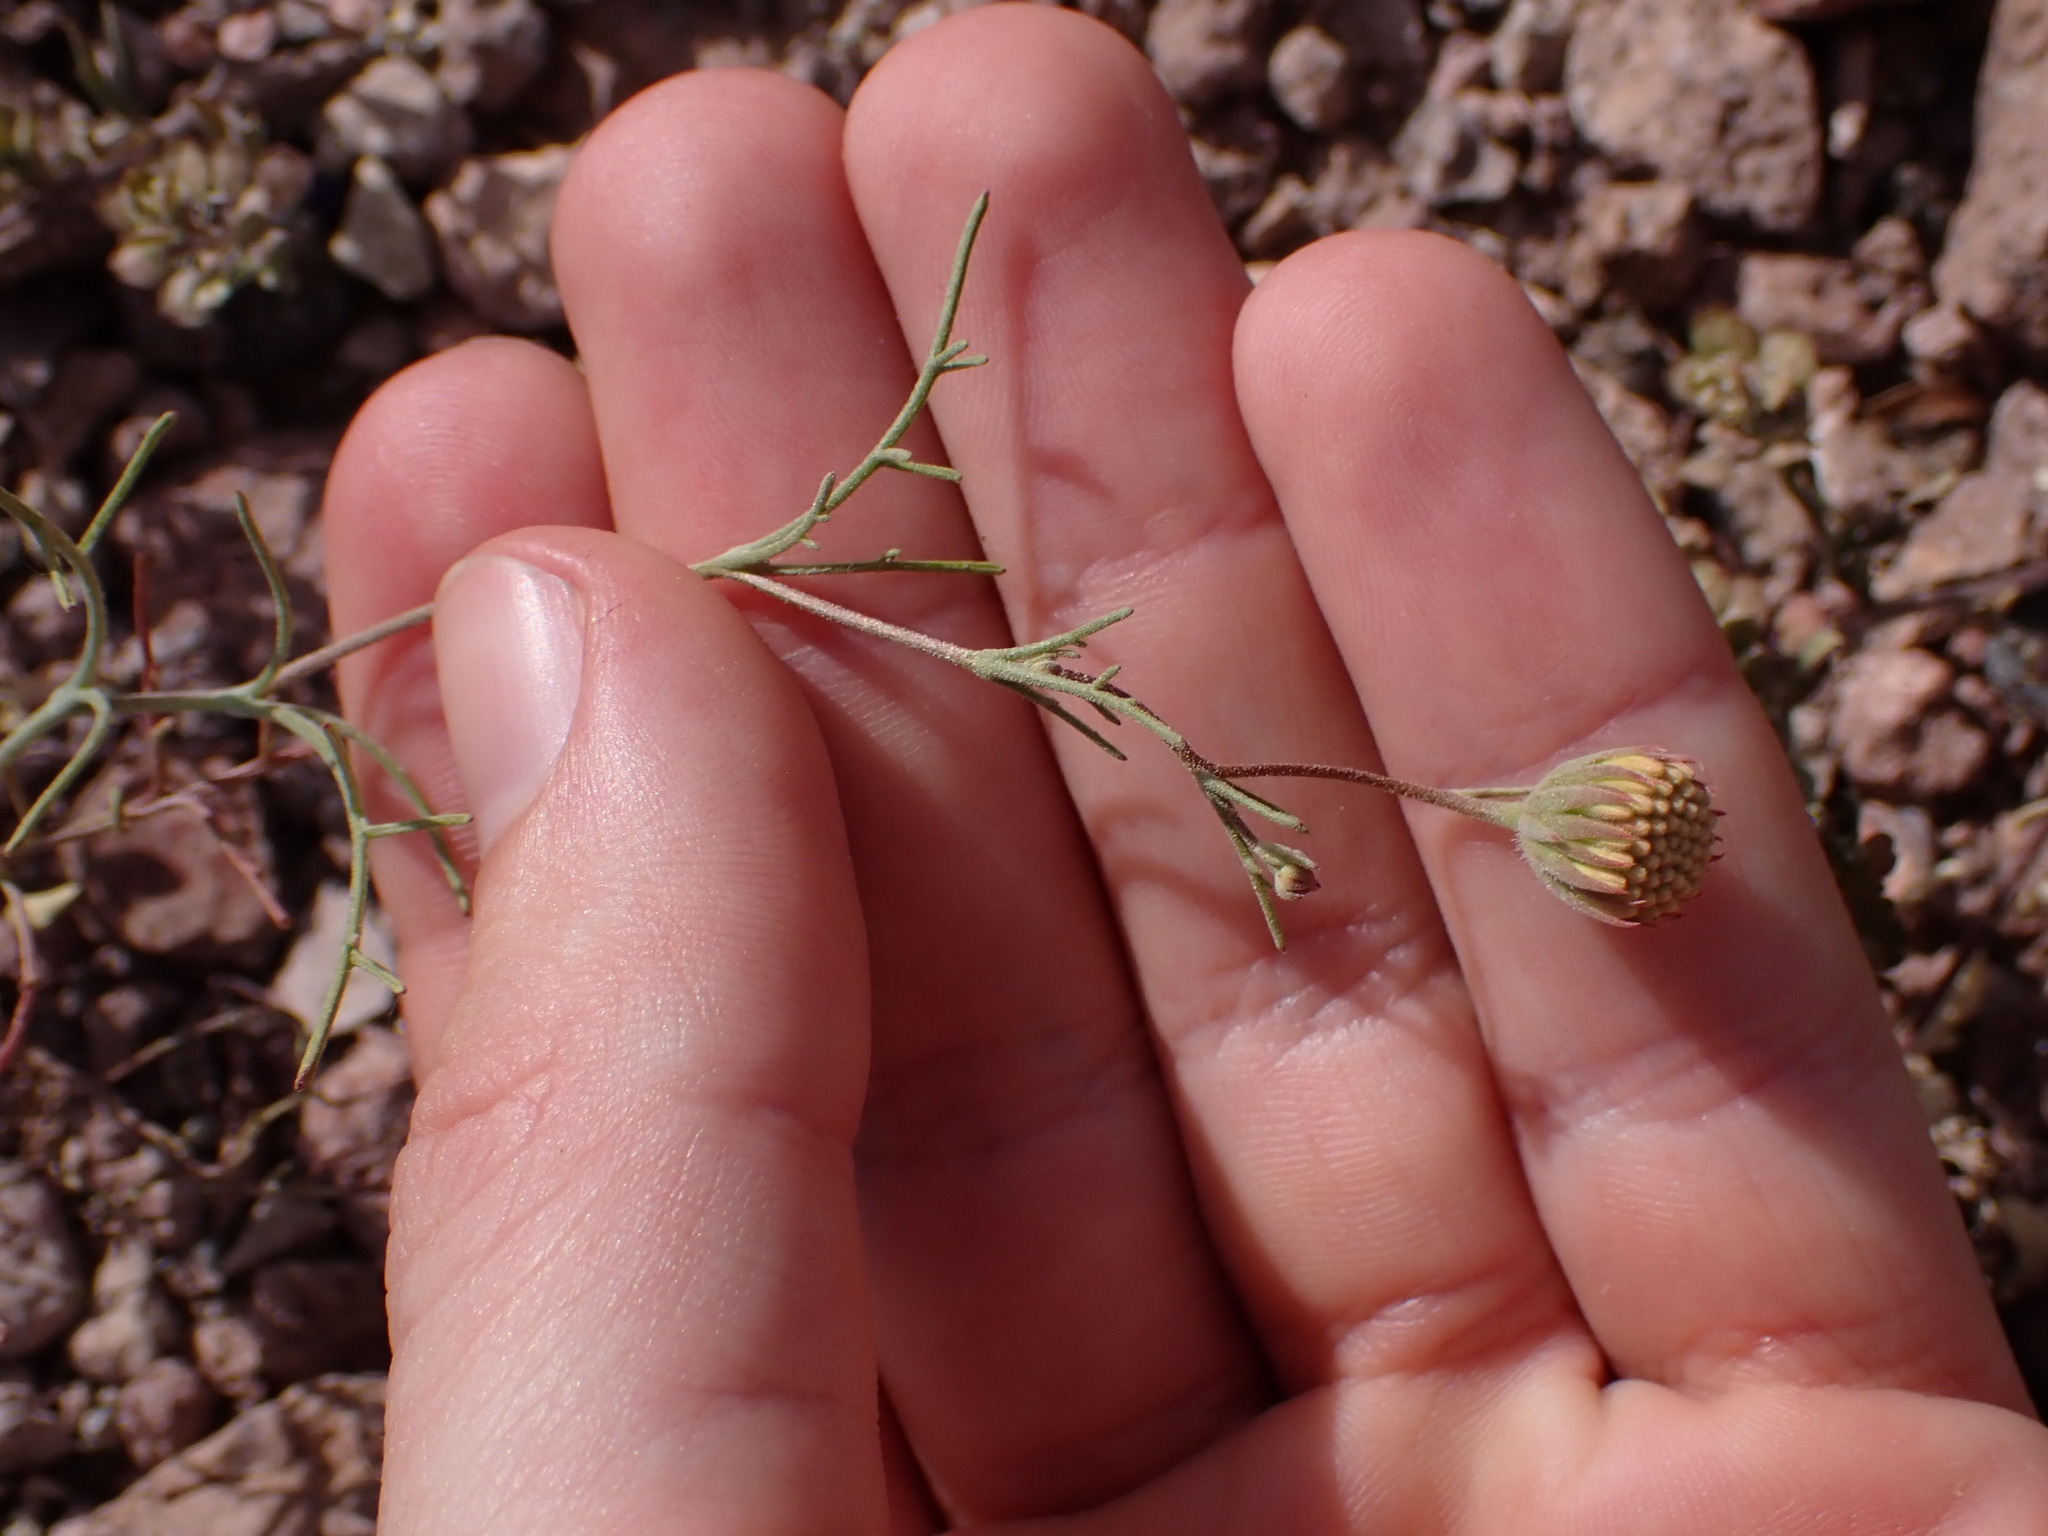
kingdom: Plantae
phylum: Tracheophyta
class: Magnoliopsida
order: Asterales
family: Asteraceae
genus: Chaenactis
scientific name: Chaenactis carphoclinia
